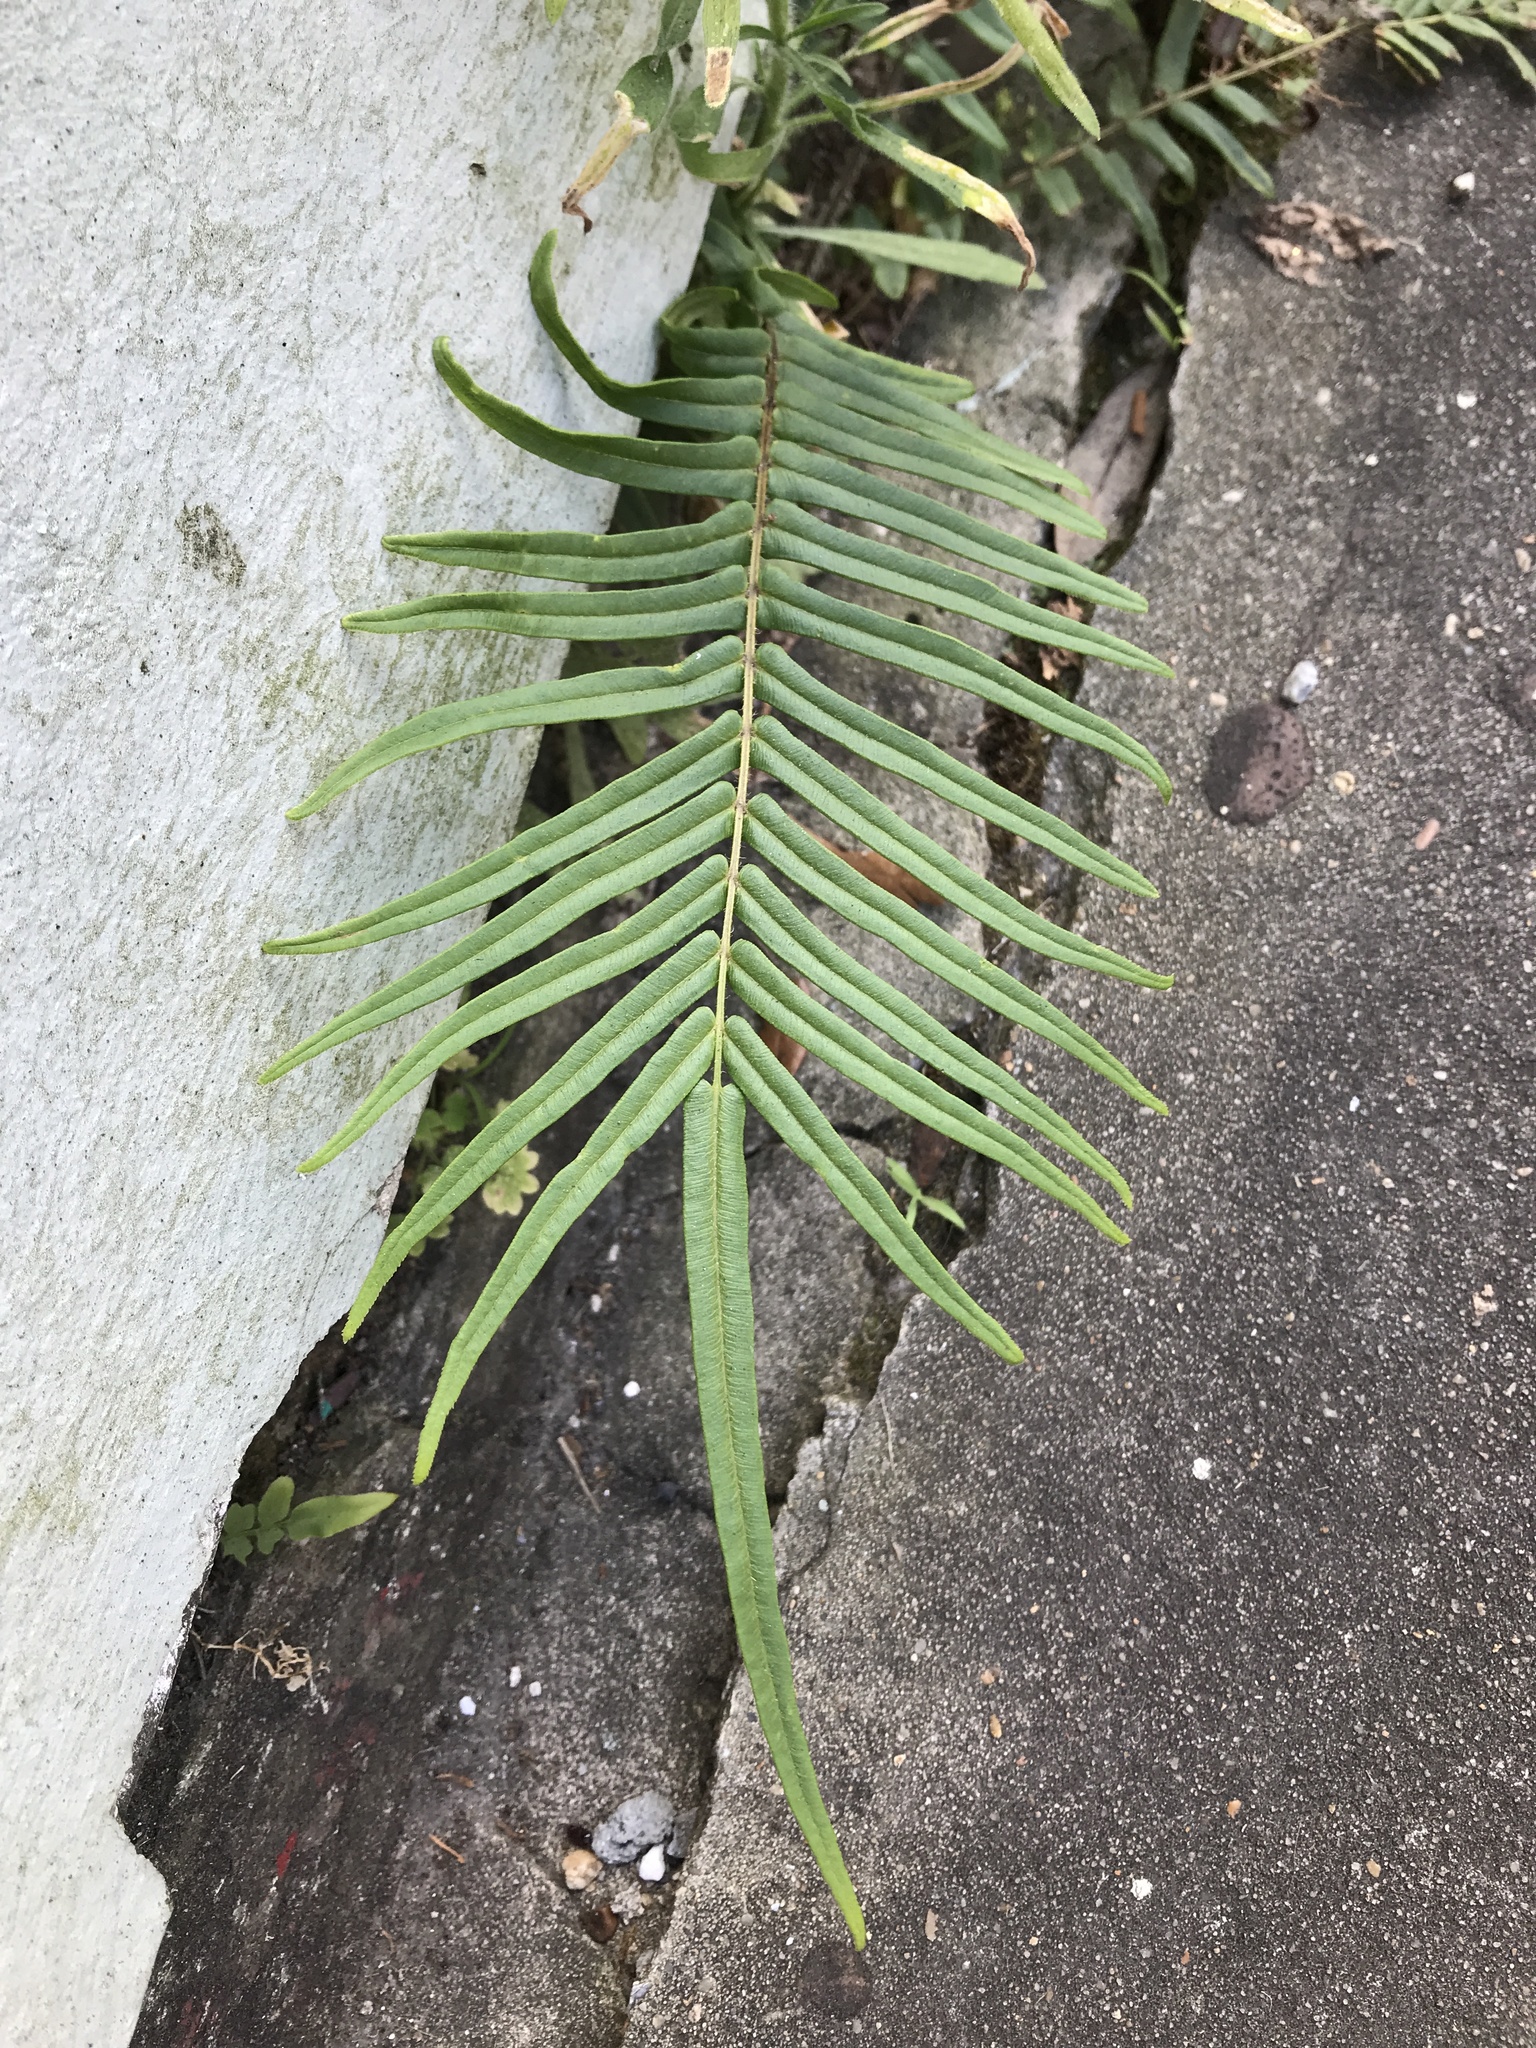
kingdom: Plantae
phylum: Tracheophyta
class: Polypodiopsida
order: Polypodiales
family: Pteridaceae
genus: Pteris
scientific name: Pteris vittata
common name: Ladder brake
